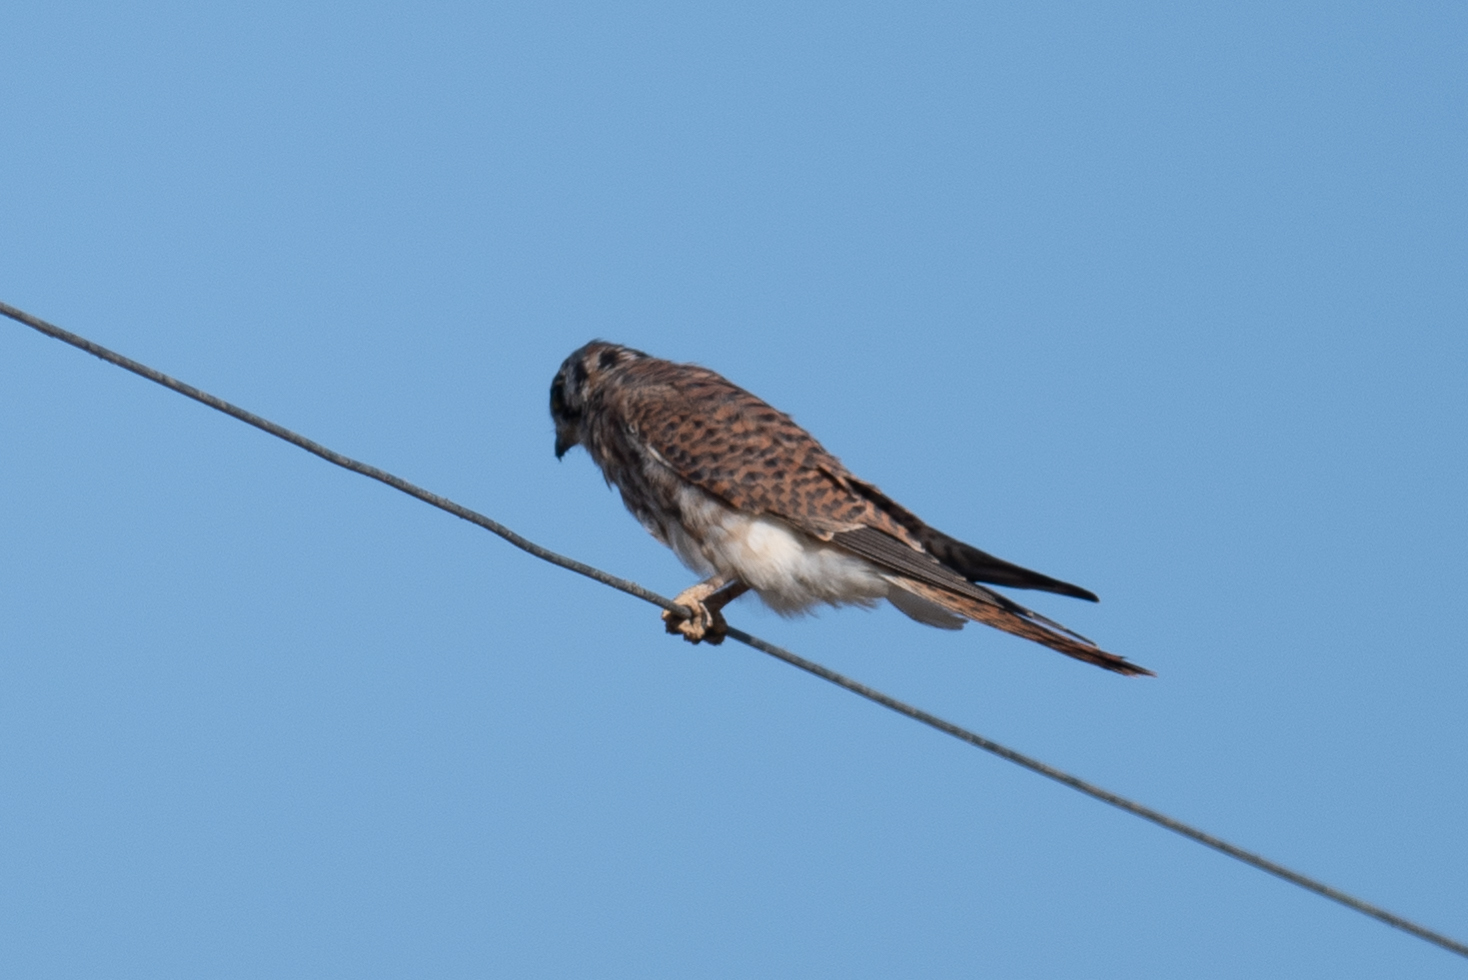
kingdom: Animalia
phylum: Chordata
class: Aves
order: Falconiformes
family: Falconidae
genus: Falco
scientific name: Falco sparverius
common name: American kestrel
